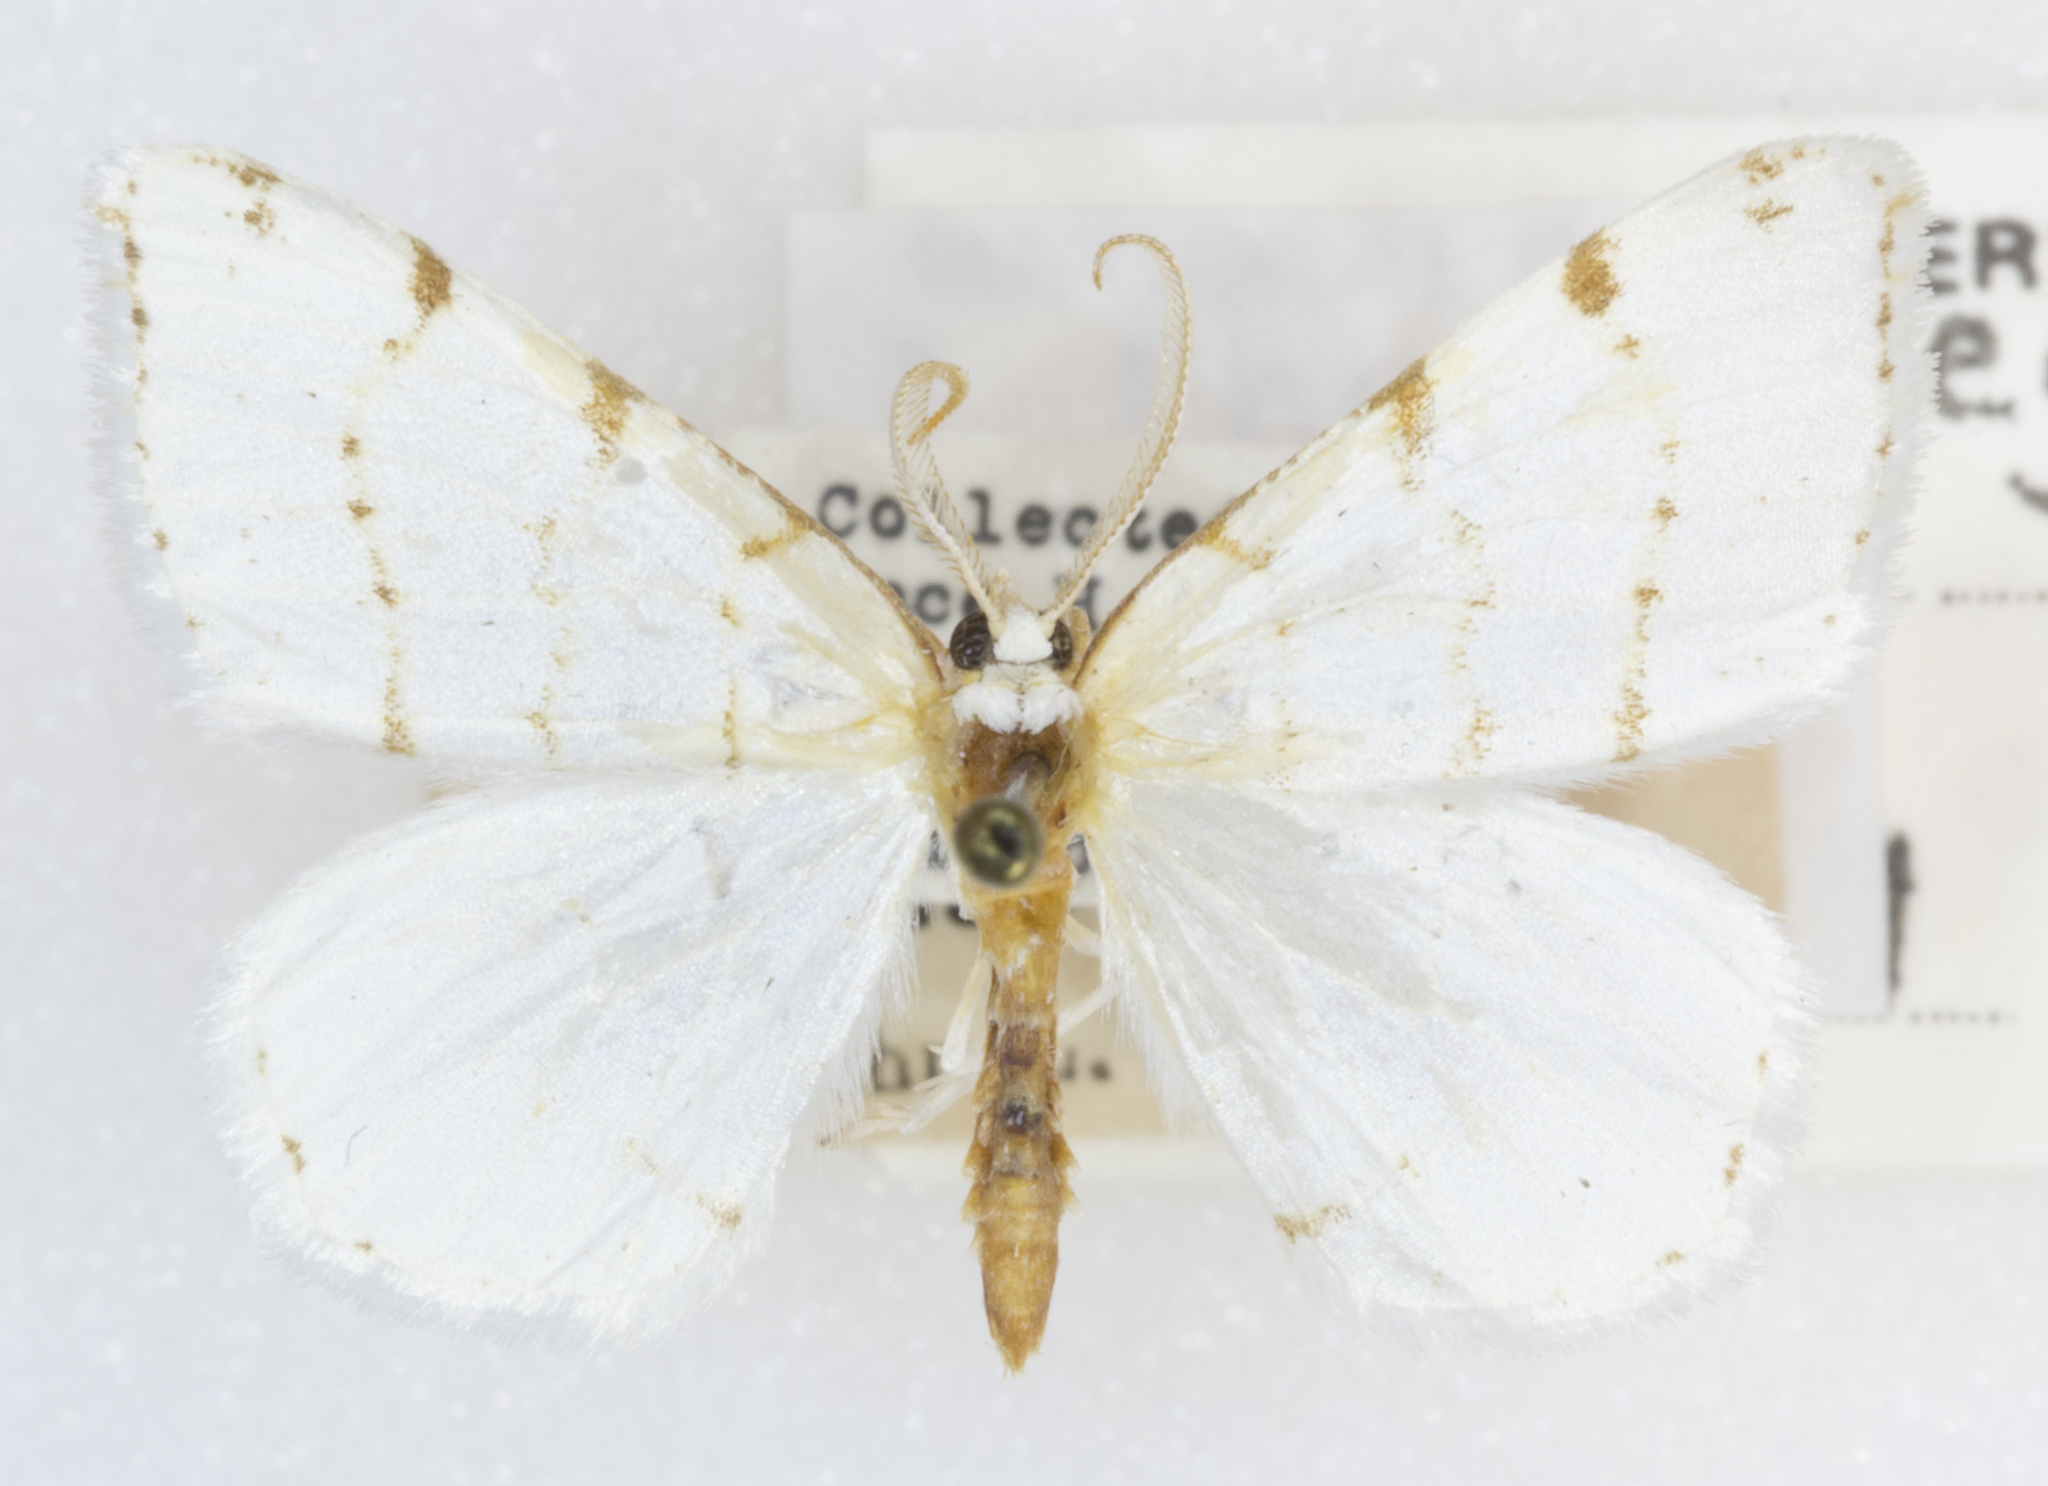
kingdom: Animalia
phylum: Arthropoda
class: Insecta
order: Lepidoptera
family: Geometridae
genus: Macaria
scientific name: Macaria pustularia
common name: Lesser maple spanworm moth
